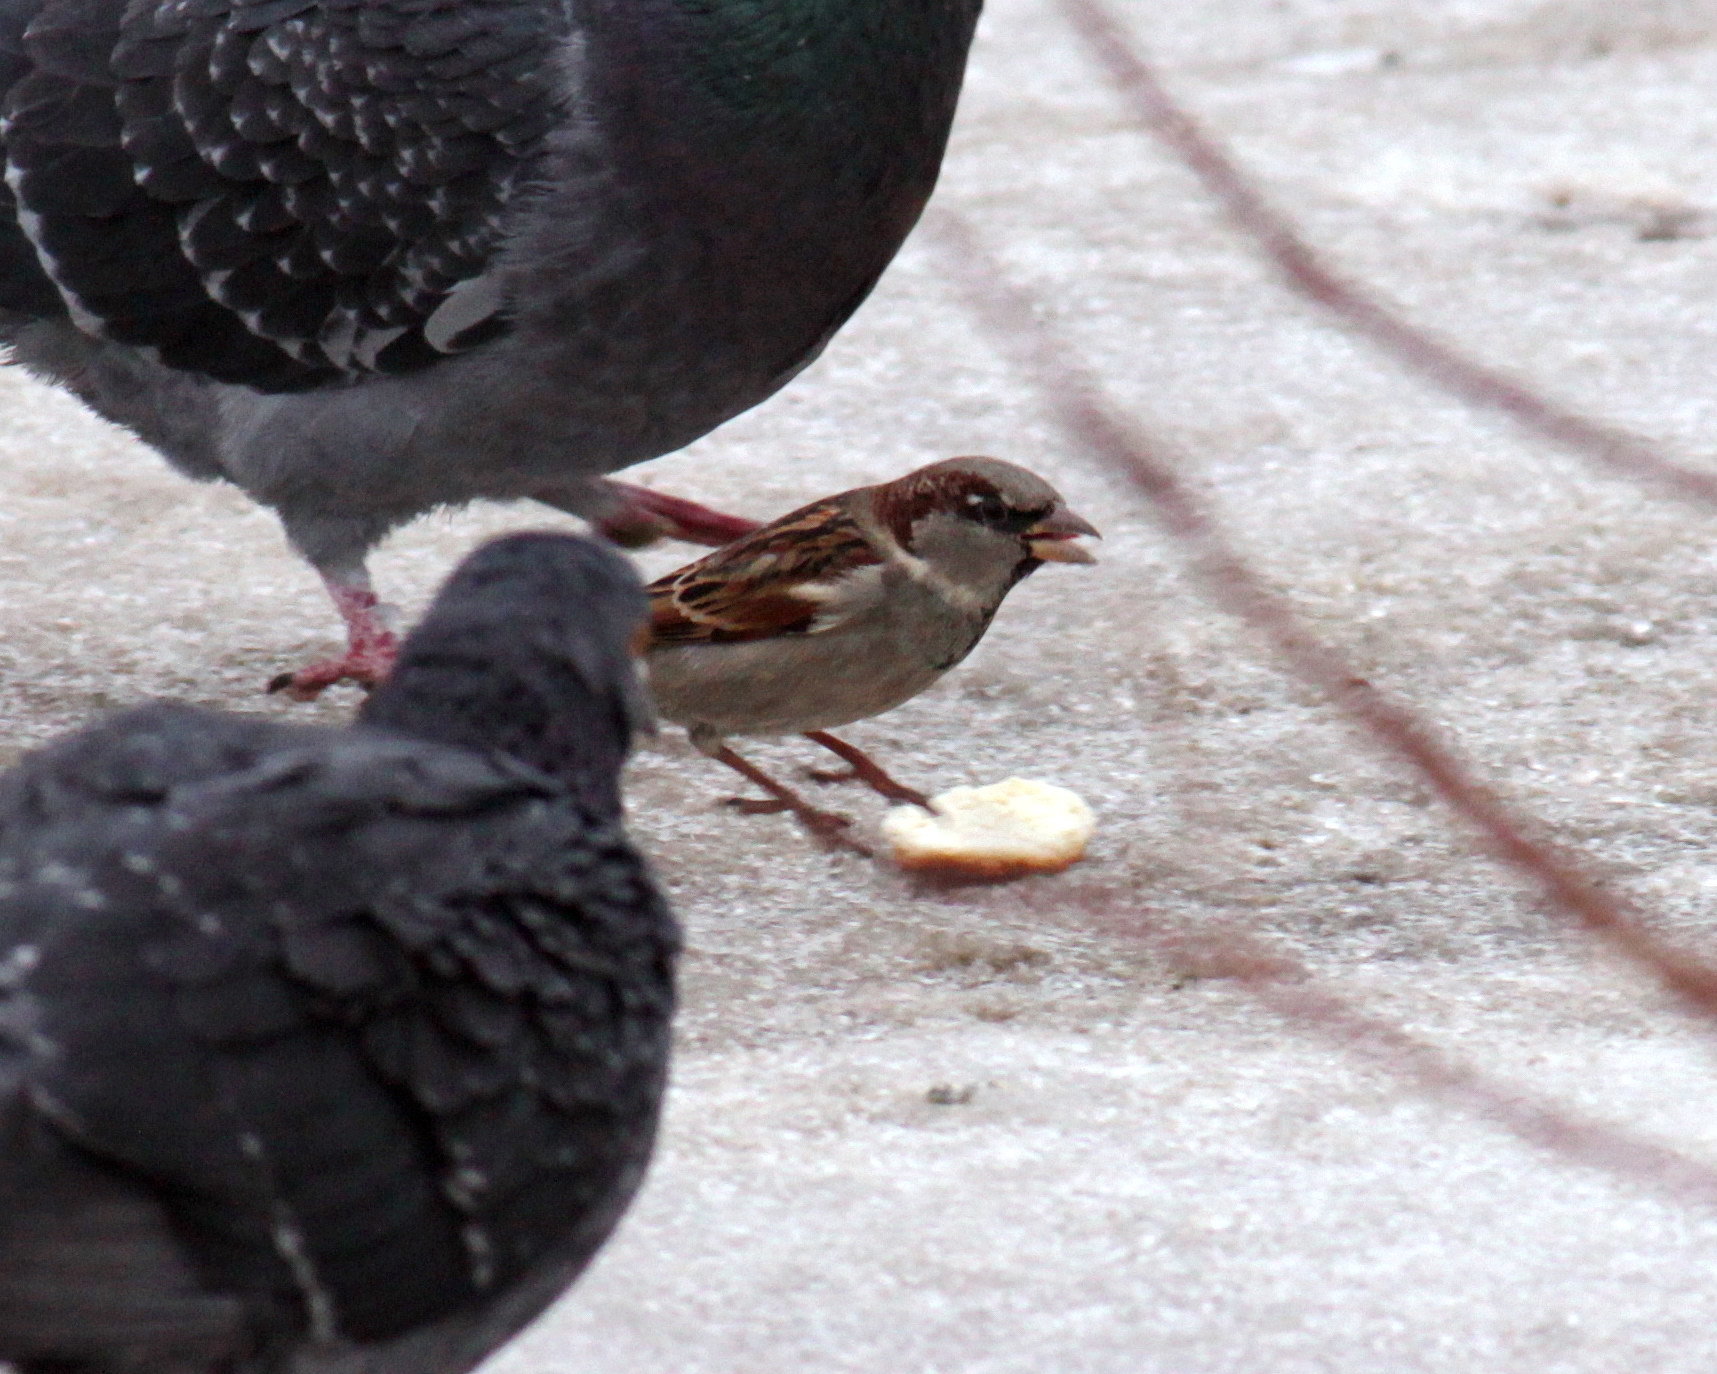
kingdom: Animalia
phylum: Chordata
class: Aves
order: Passeriformes
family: Passeridae
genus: Passer
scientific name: Passer domesticus
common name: House sparrow
